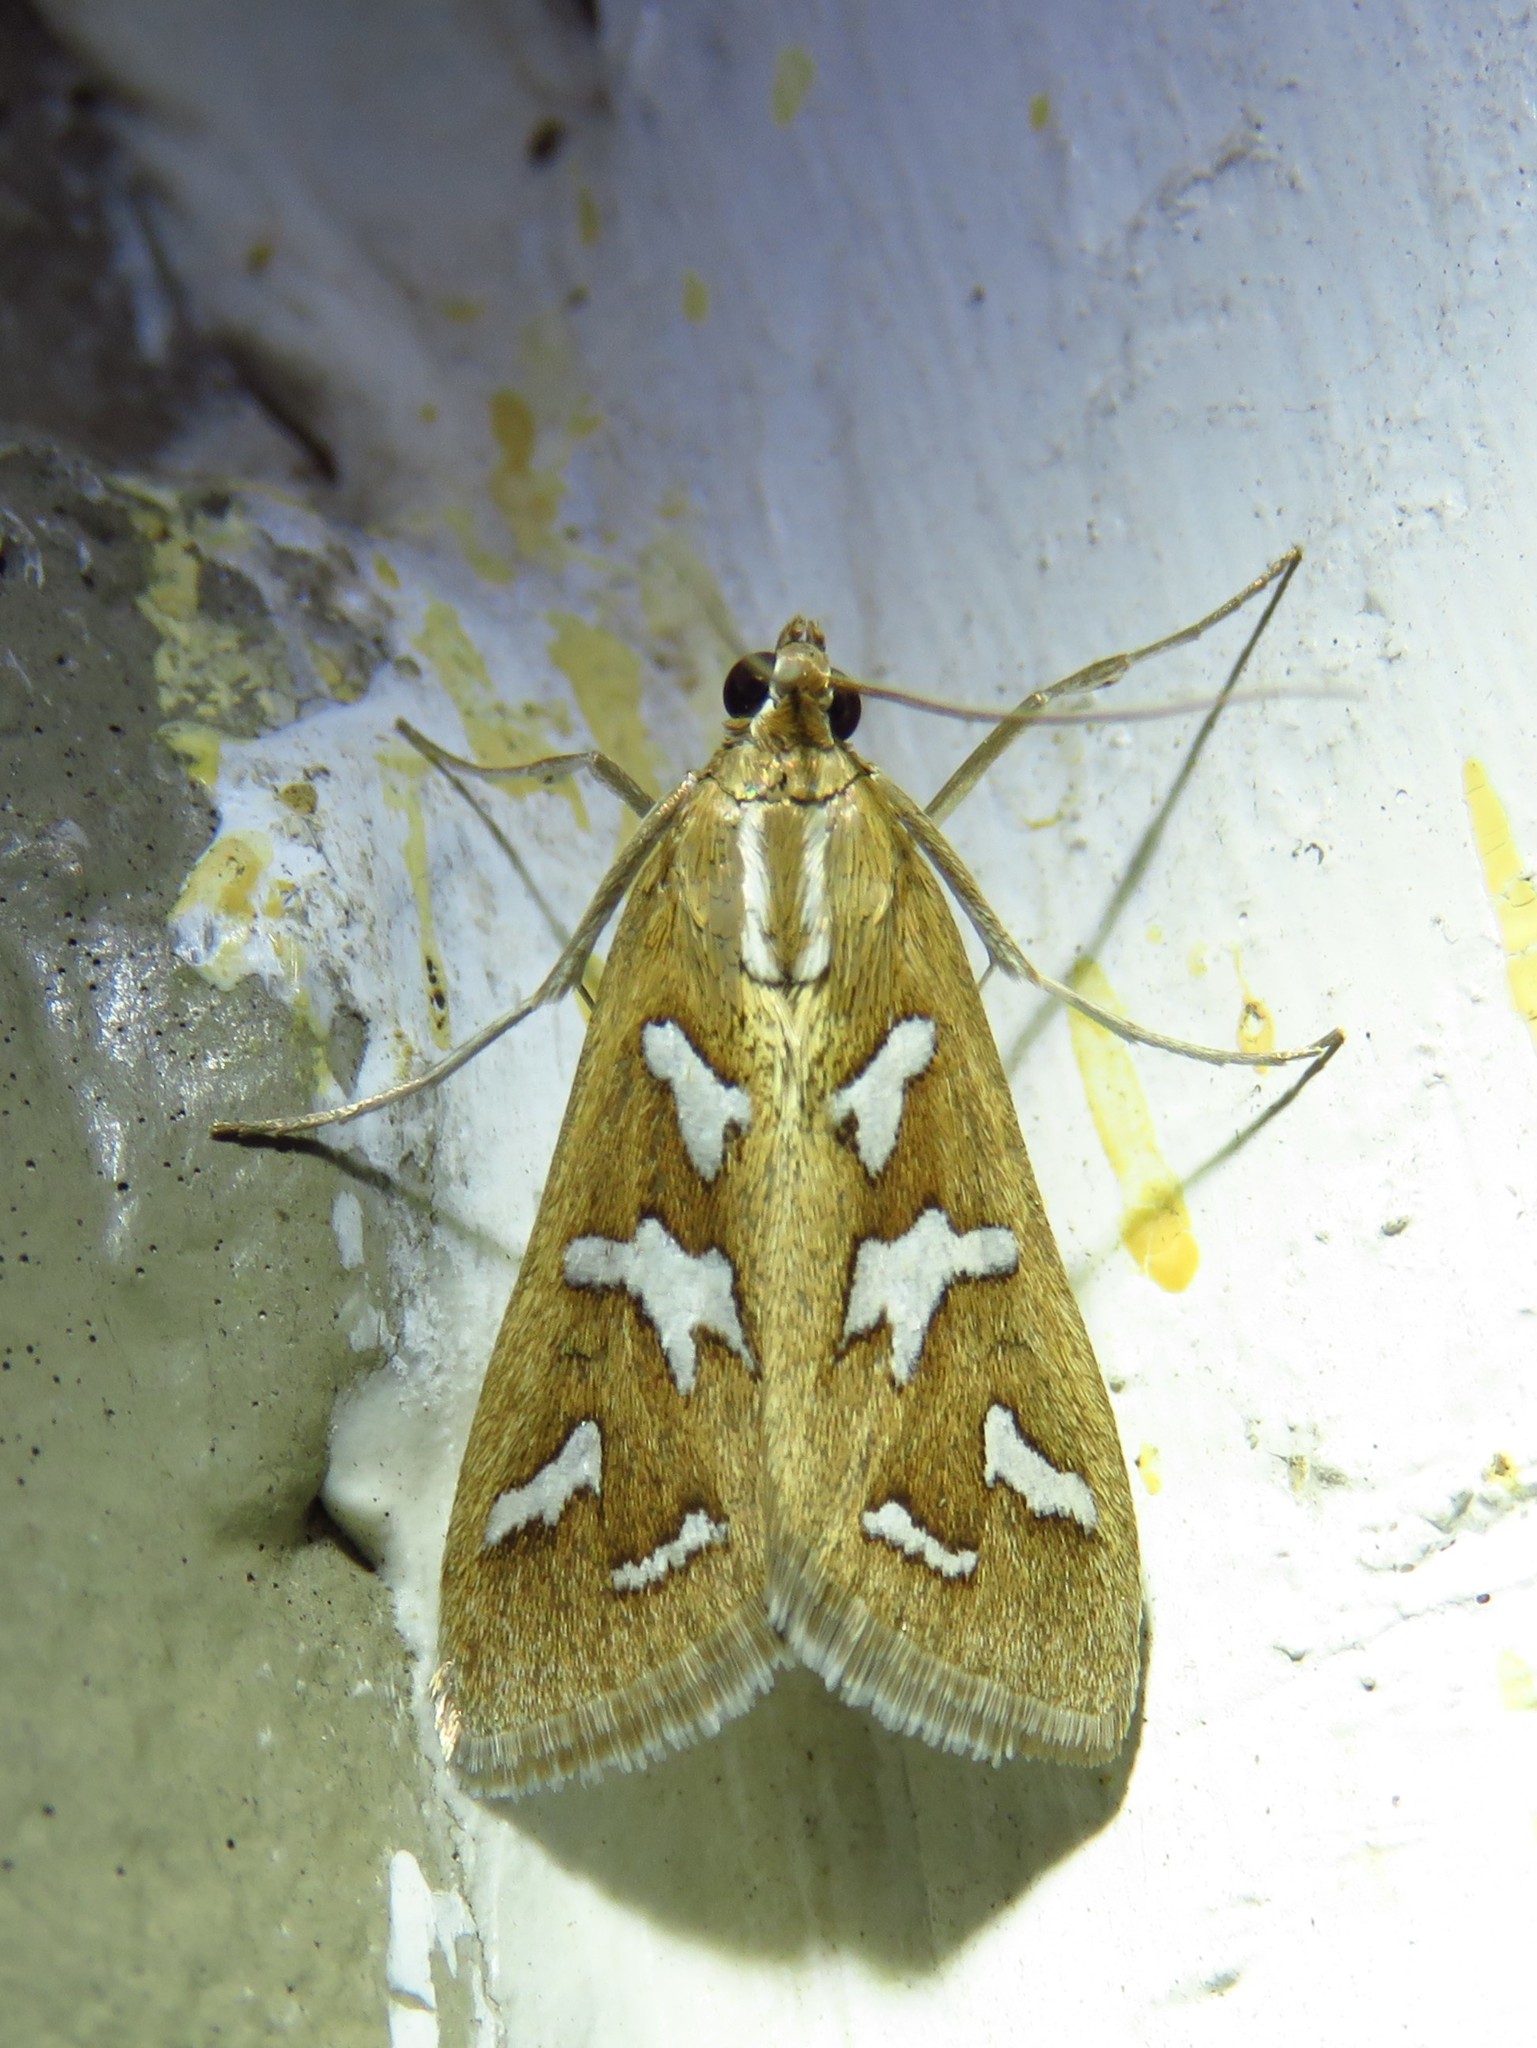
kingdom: Animalia
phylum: Arthropoda
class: Insecta
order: Lepidoptera
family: Crambidae
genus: Diastictis
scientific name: Diastictis fracturalis
